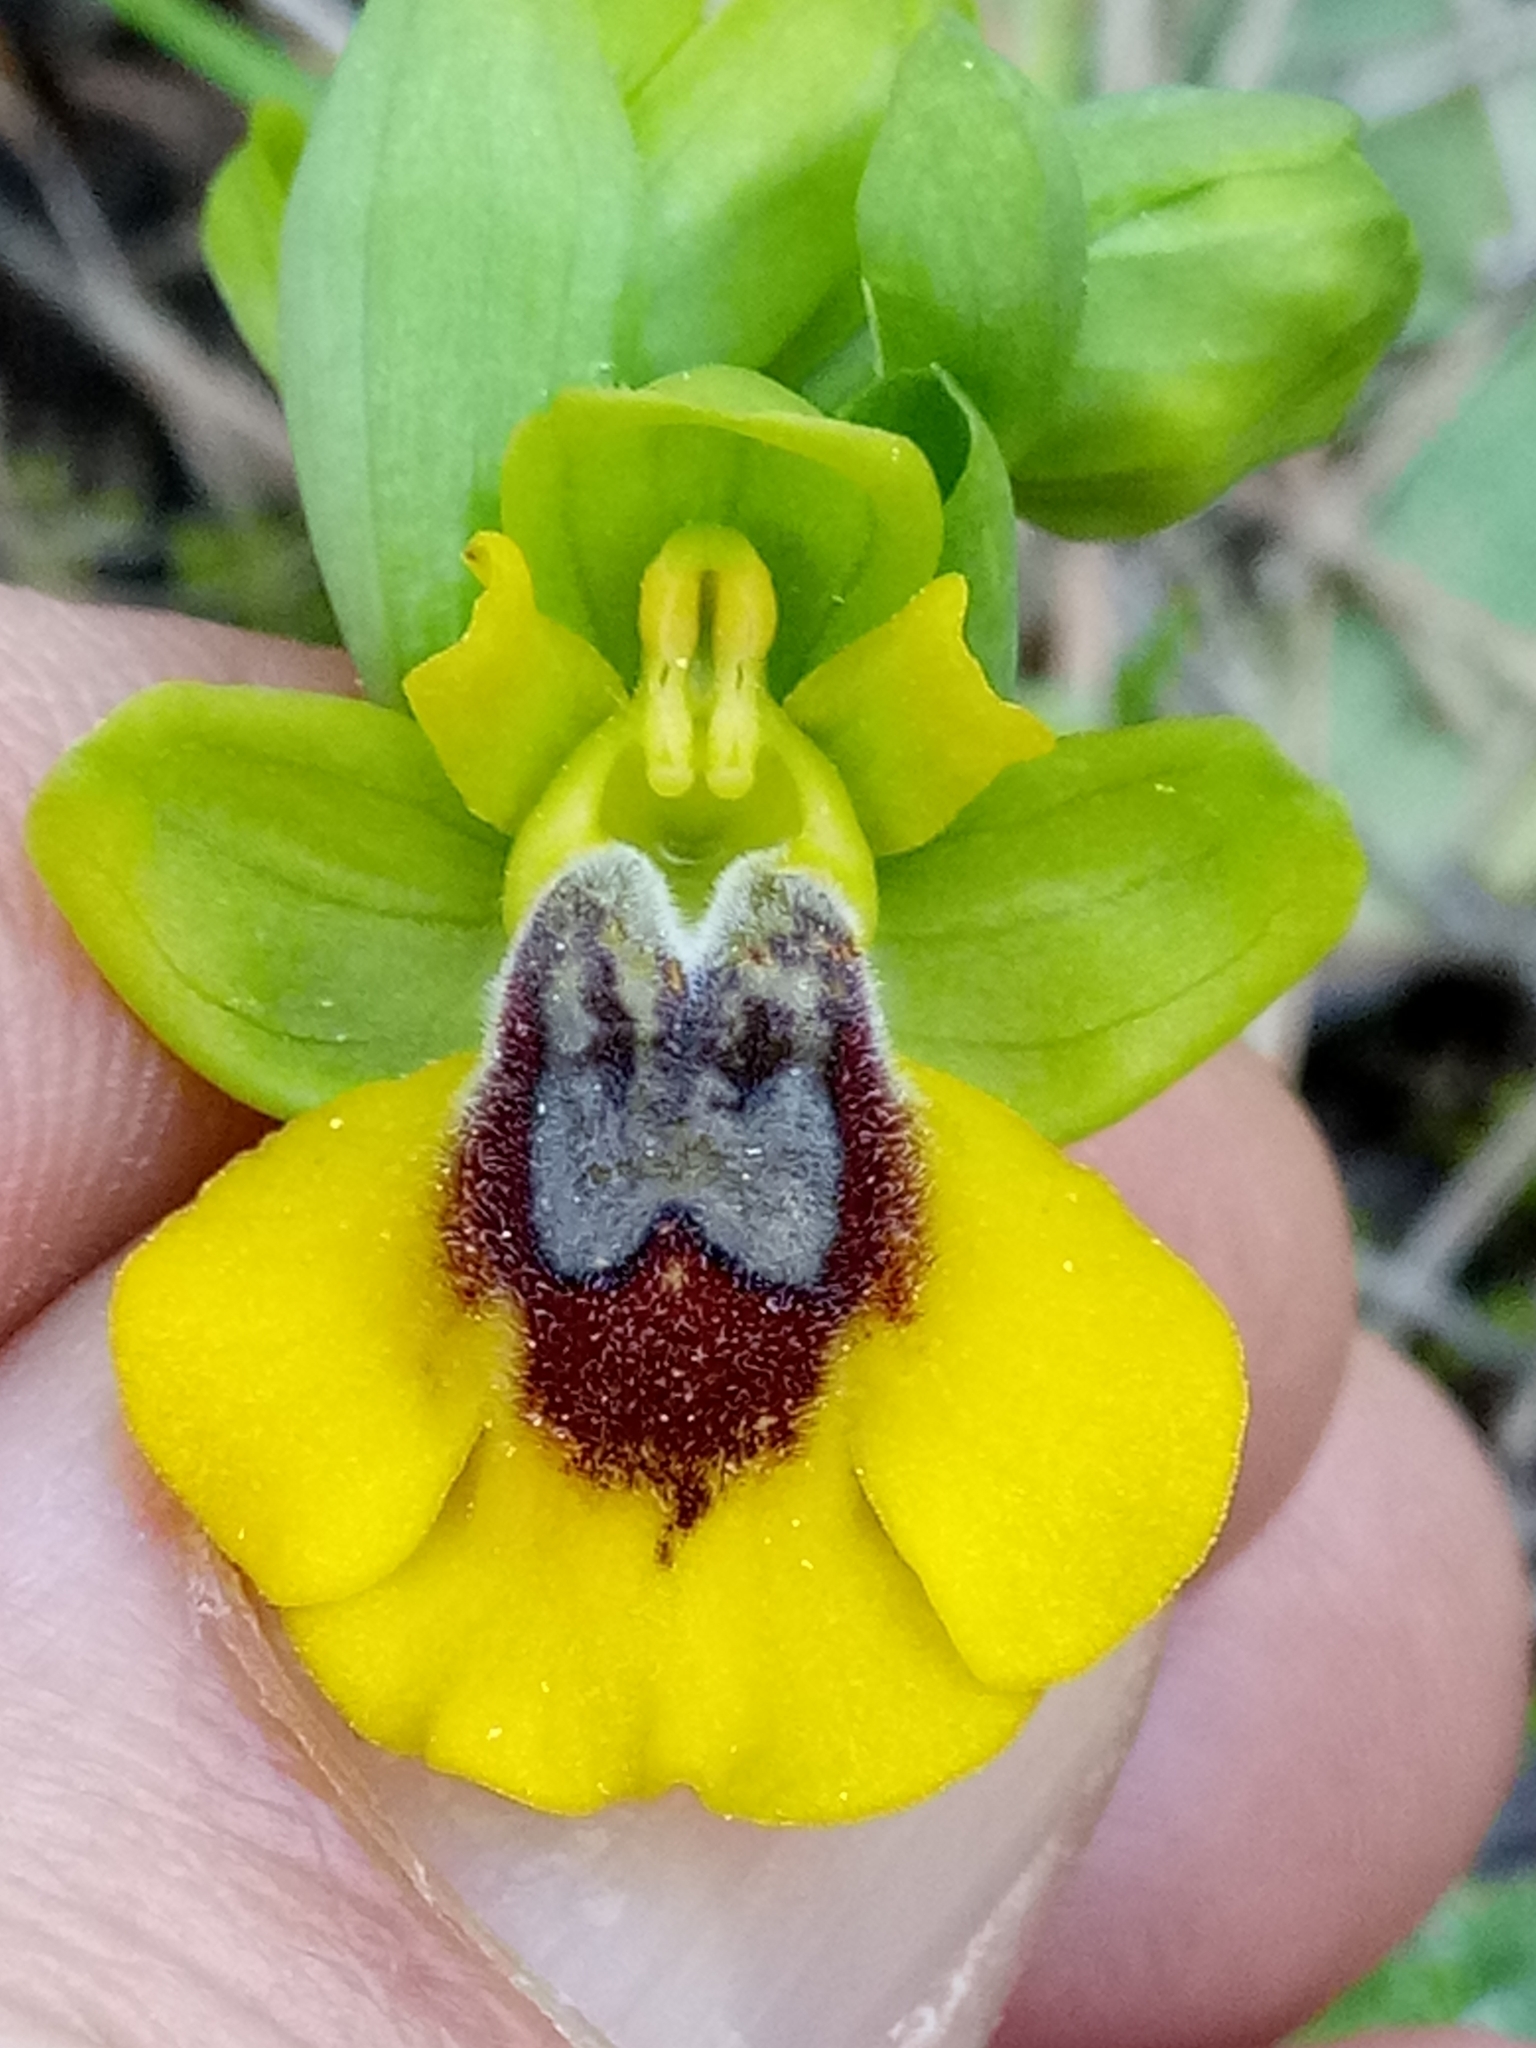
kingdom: Plantae
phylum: Tracheophyta
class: Liliopsida
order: Asparagales
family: Orchidaceae
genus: Ophrys
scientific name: Ophrys lutea
